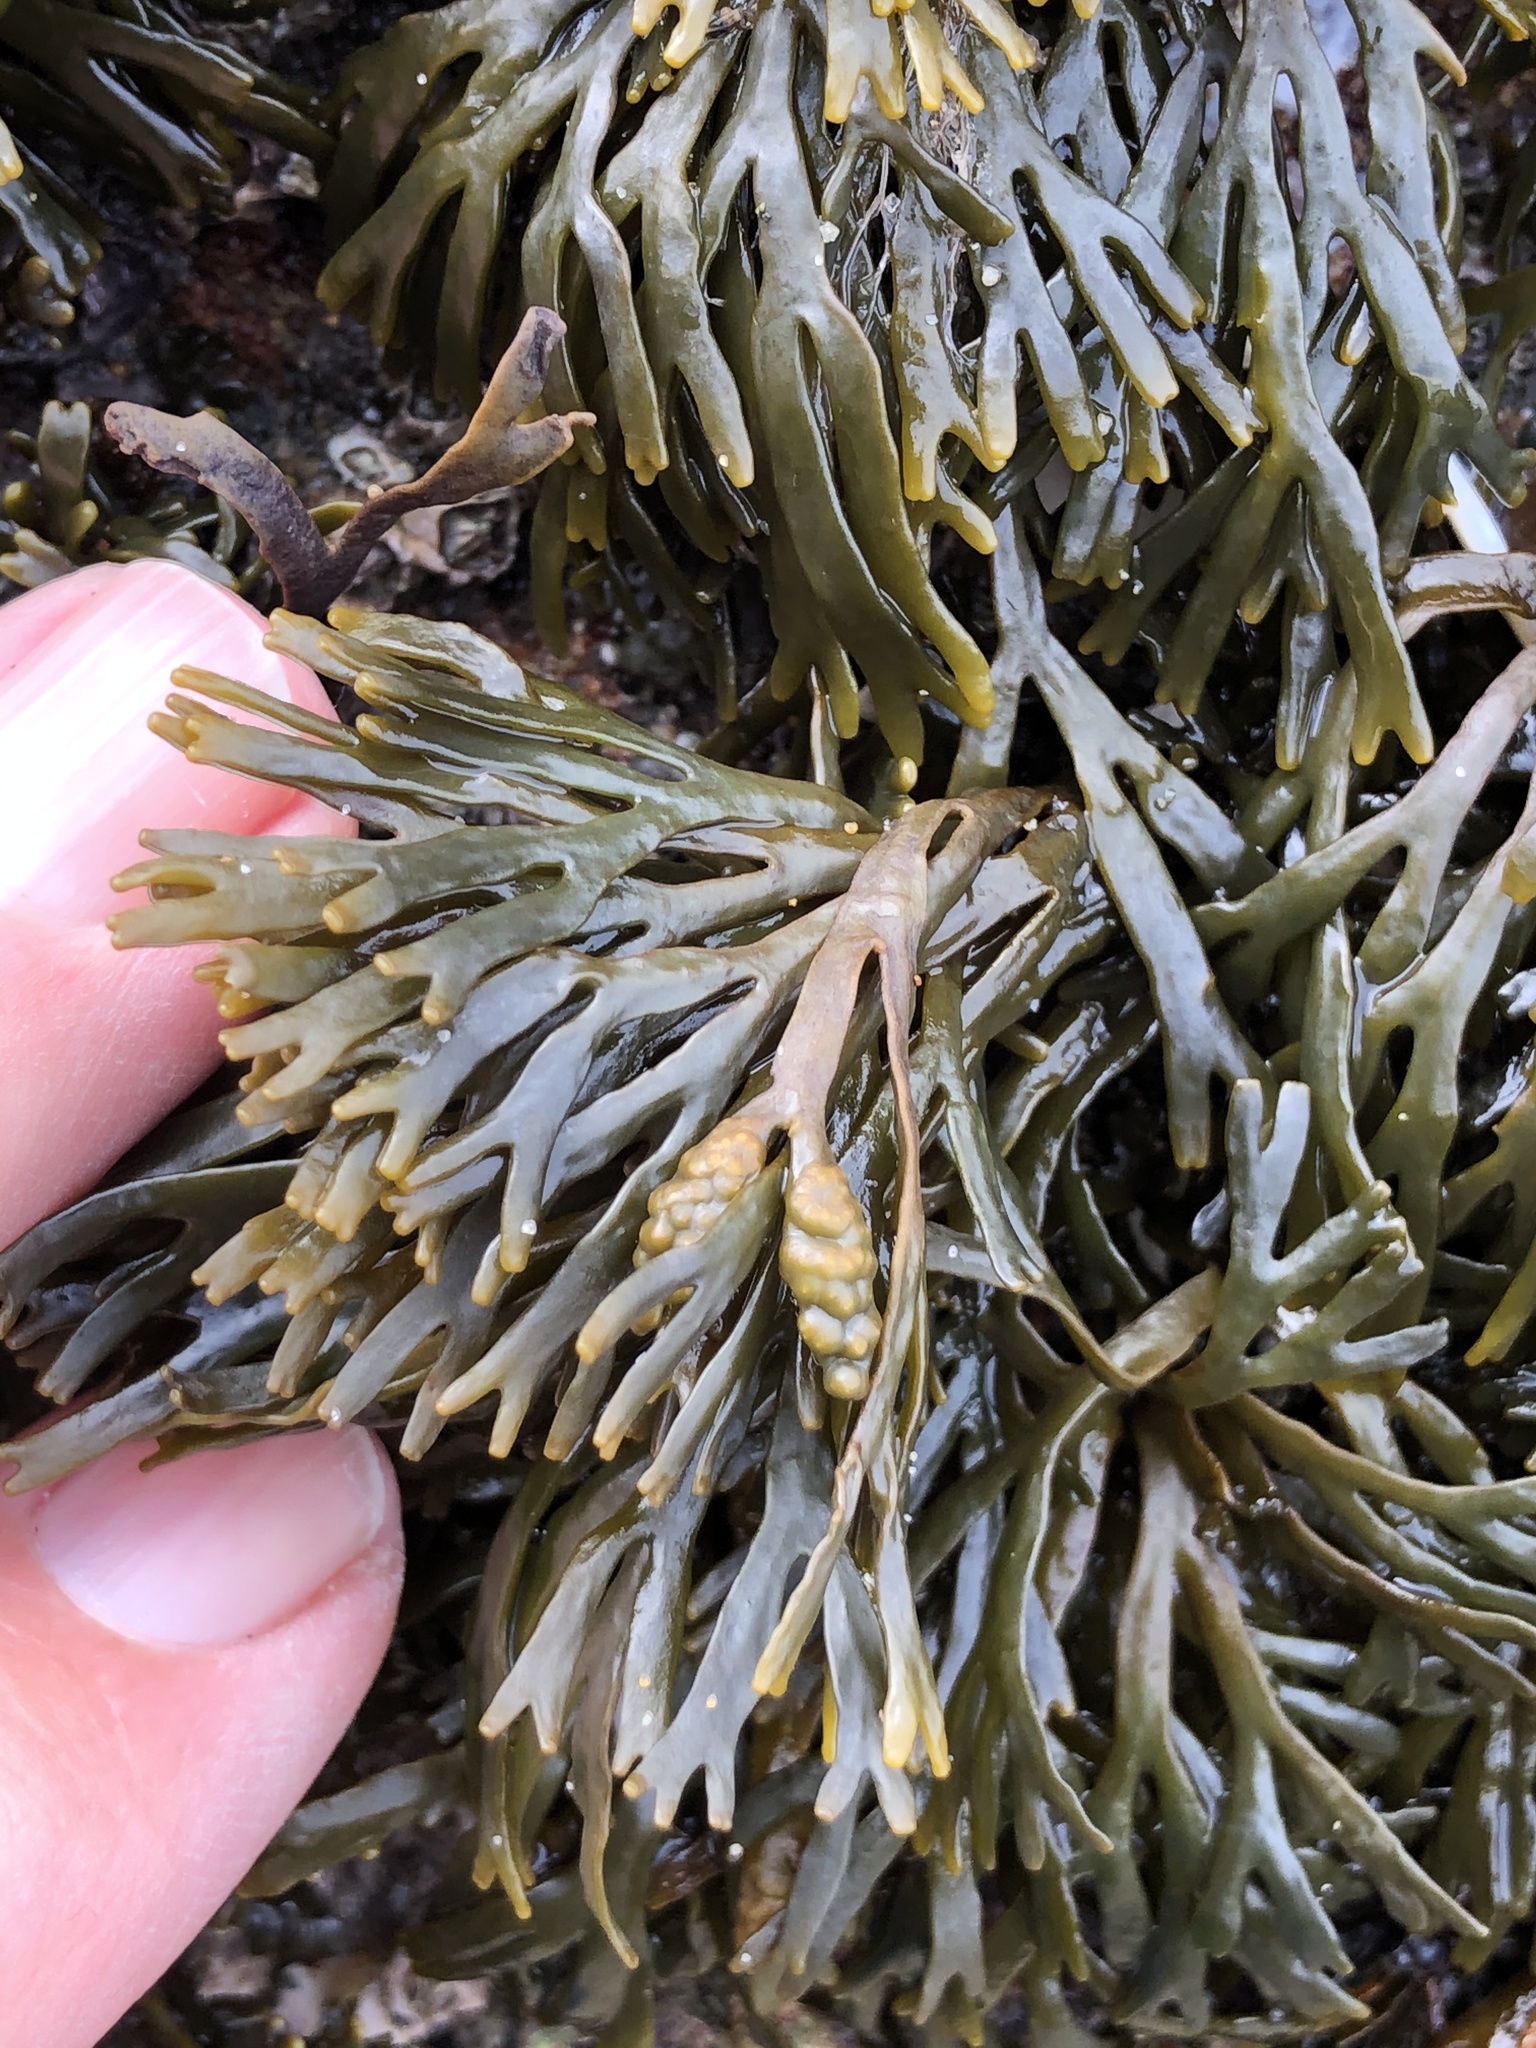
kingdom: Chromista
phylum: Ochrophyta
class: Phaeophyceae
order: Fucales
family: Fucaceae
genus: Pelvetiopsis
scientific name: Pelvetiopsis limitata
